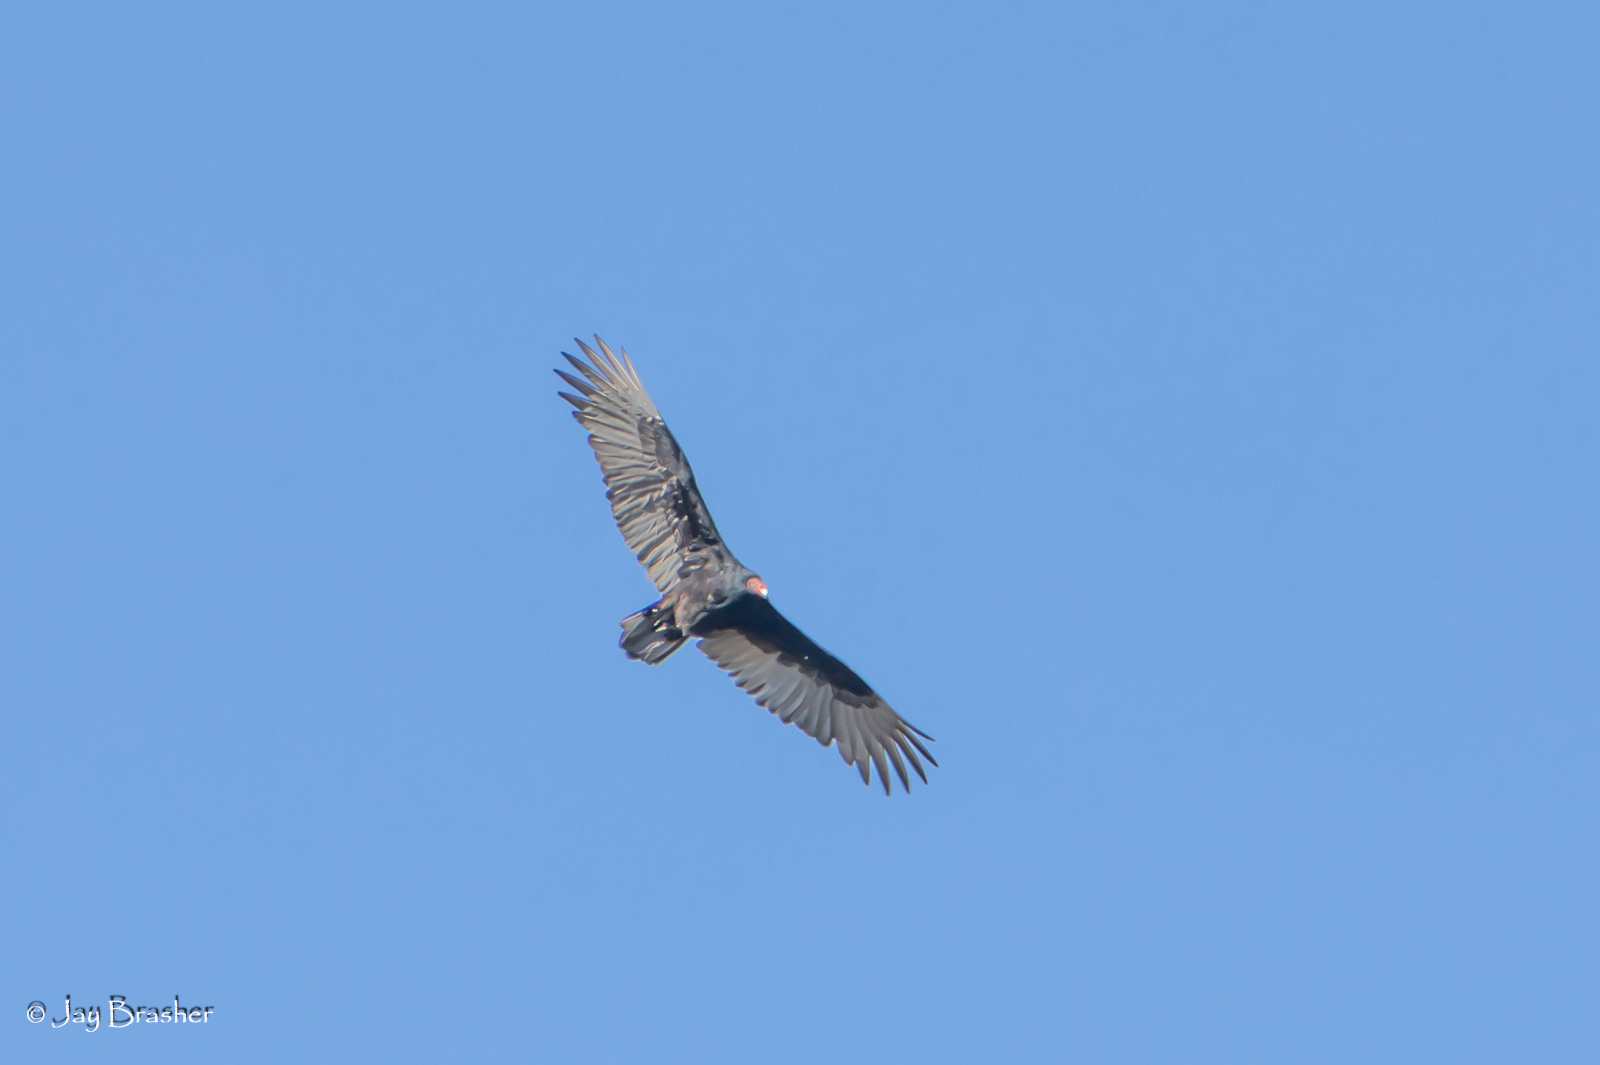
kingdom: Animalia
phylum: Chordata
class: Aves
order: Accipitriformes
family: Cathartidae
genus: Cathartes
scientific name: Cathartes aura
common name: Turkey vulture
